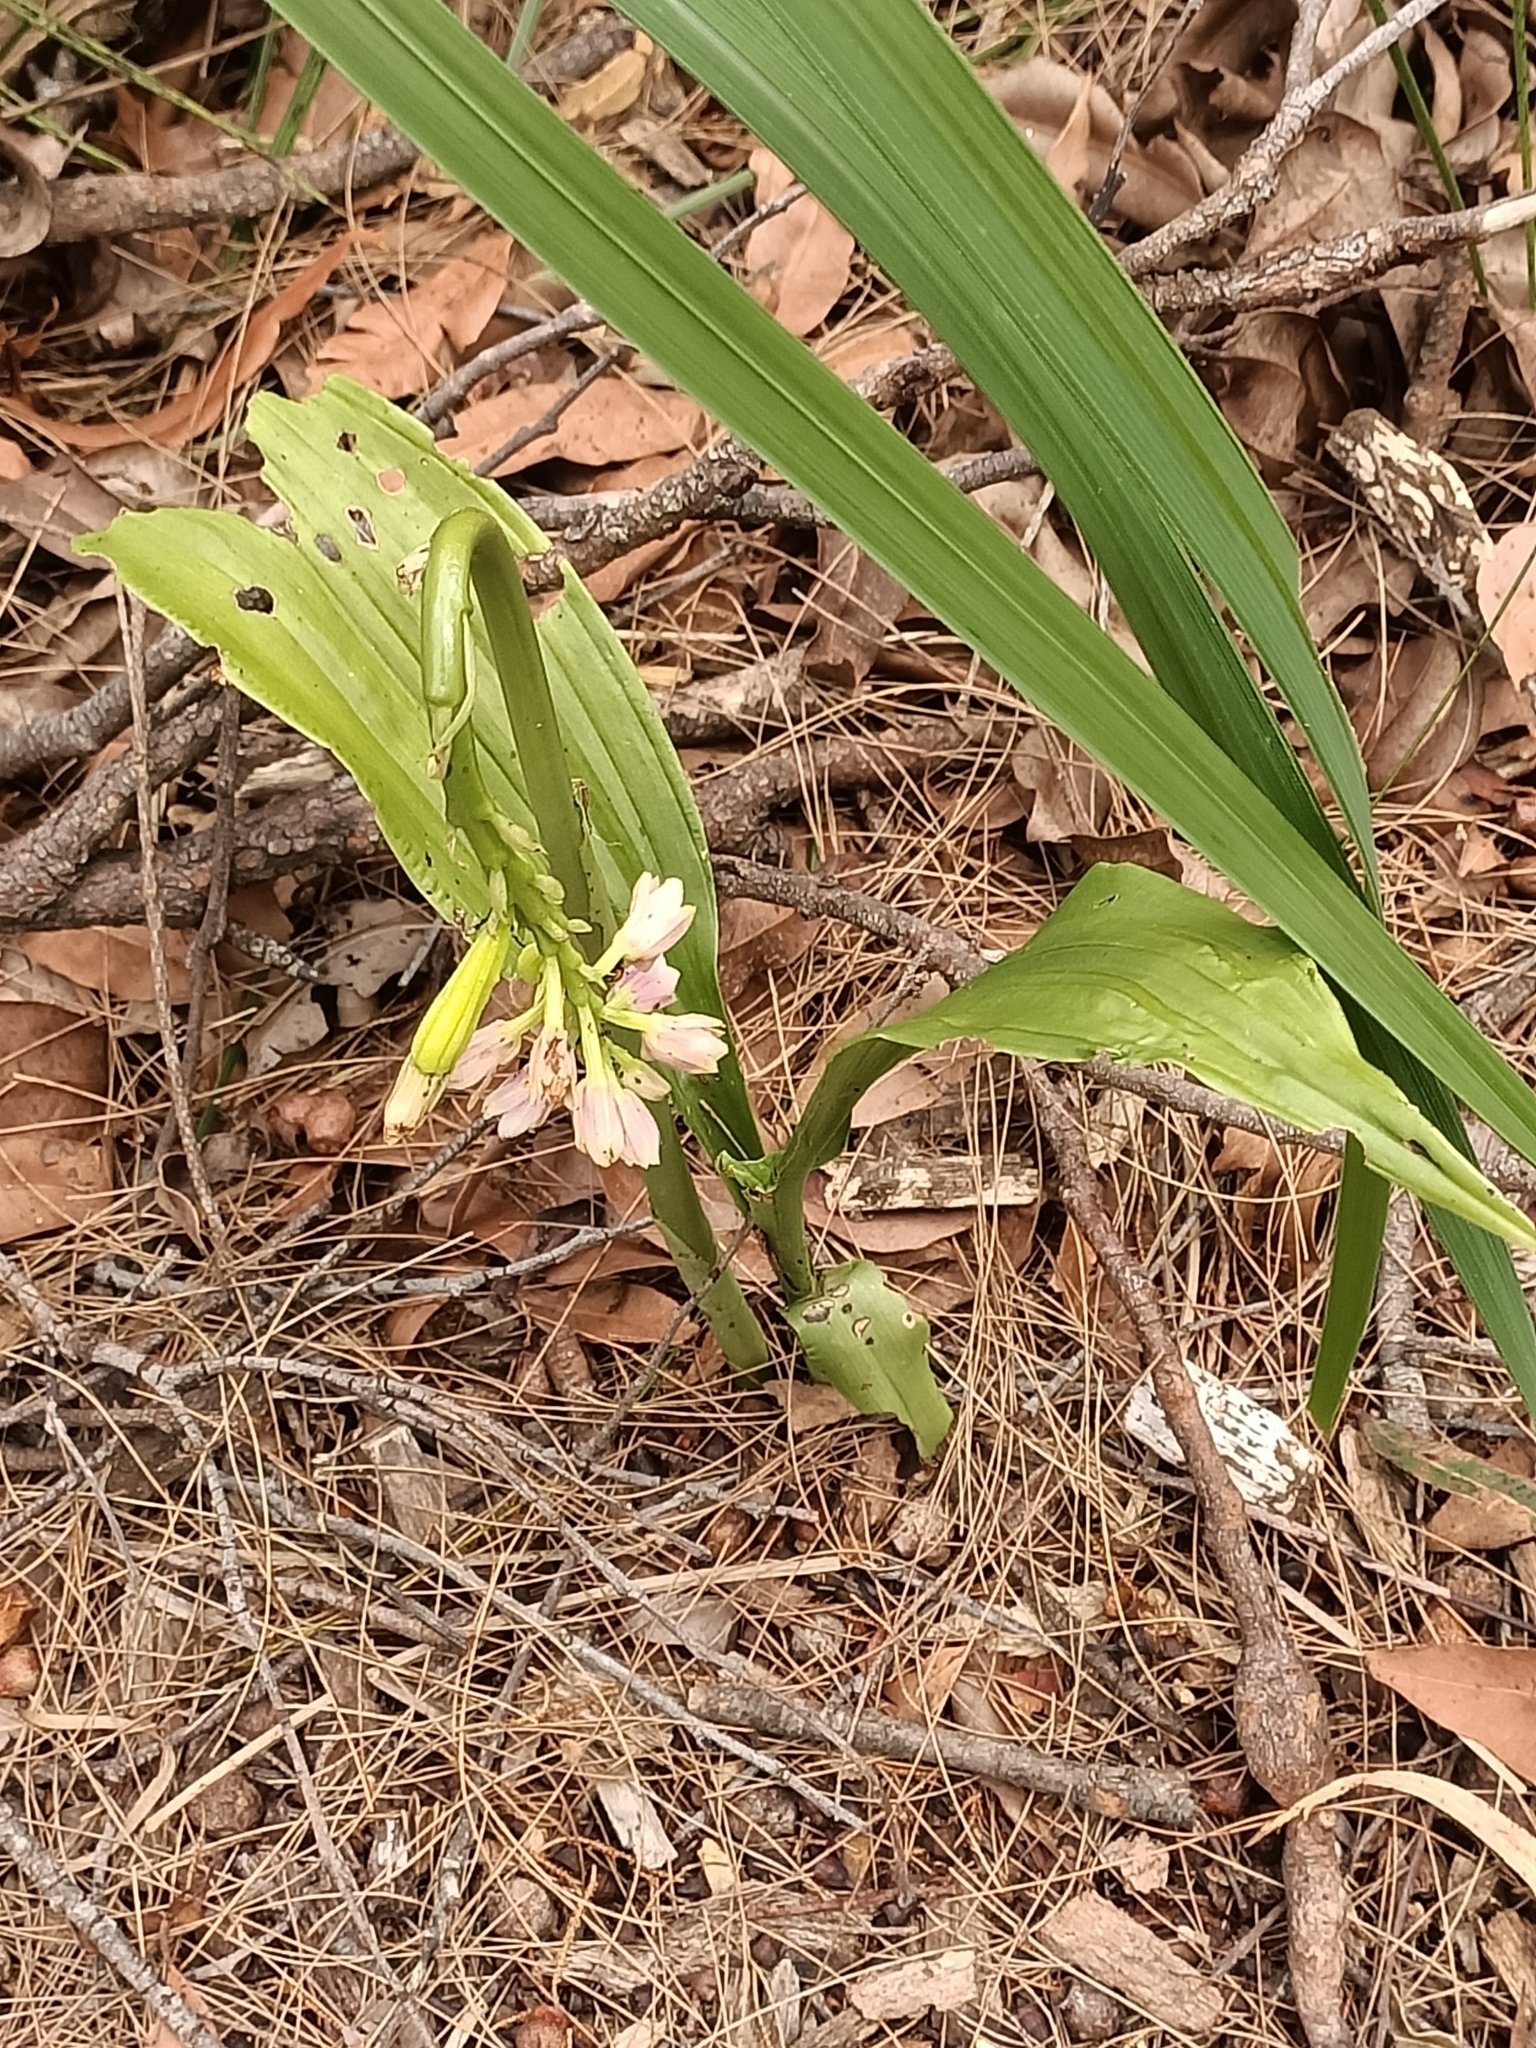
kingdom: Plantae
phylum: Tracheophyta
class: Liliopsida
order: Asparagales
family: Orchidaceae
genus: Eulophia
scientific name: Eulophia cernua
